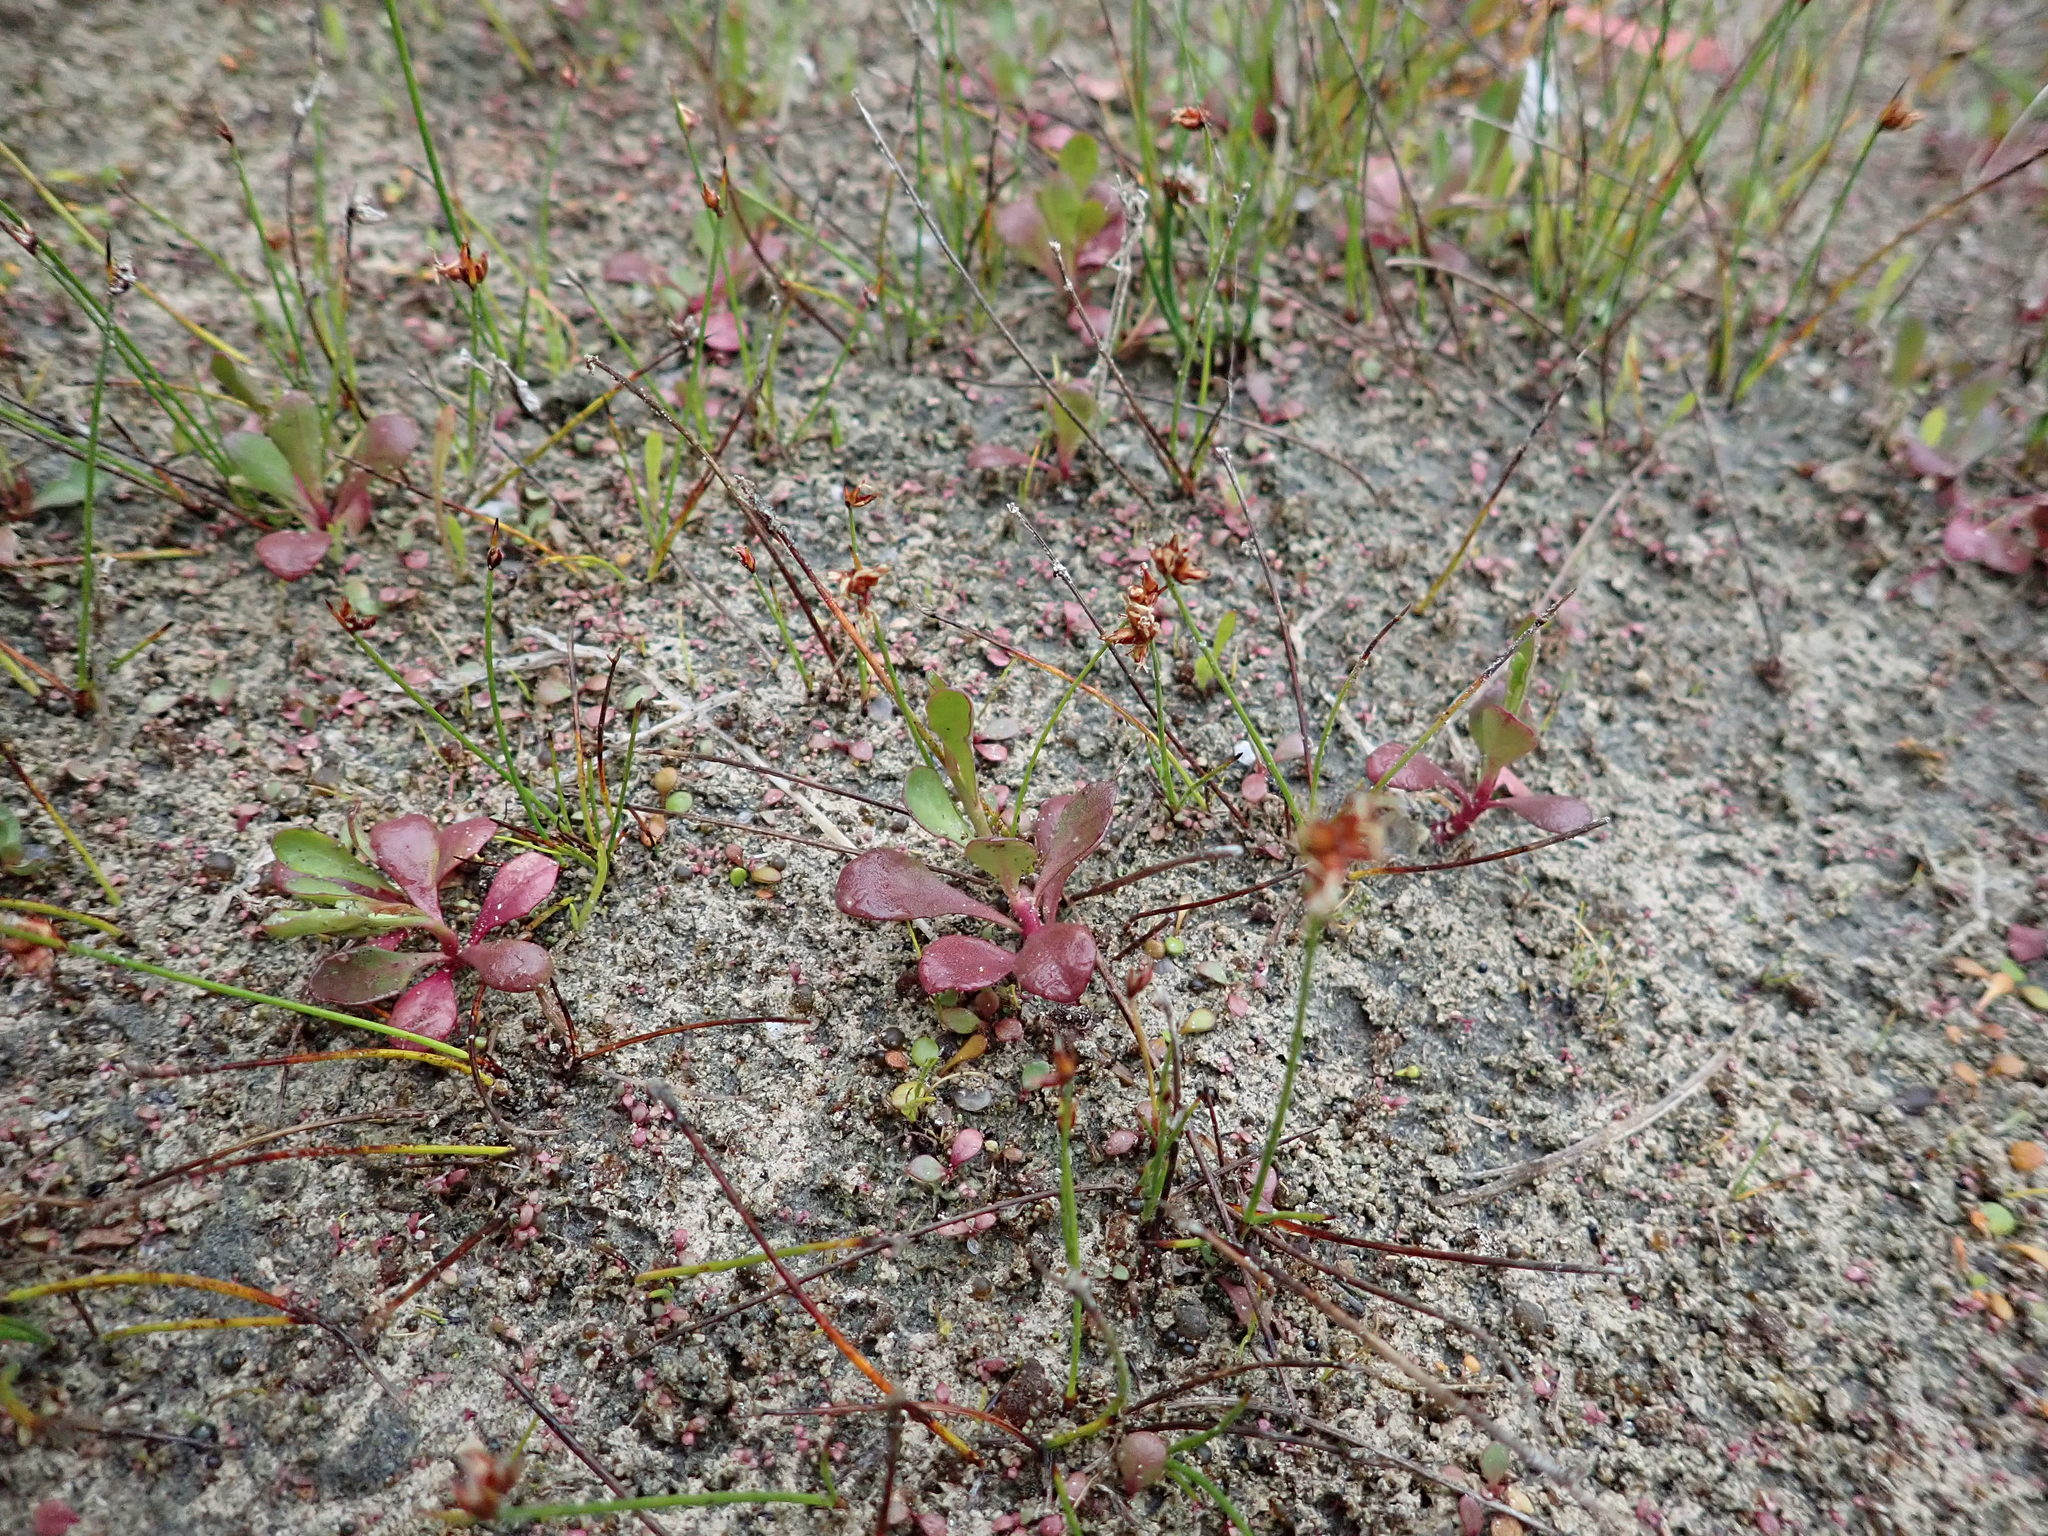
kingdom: Plantae
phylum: Tracheophyta
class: Magnoliopsida
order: Asterales
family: Campanulaceae
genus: Lobelia
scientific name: Lobelia anceps
